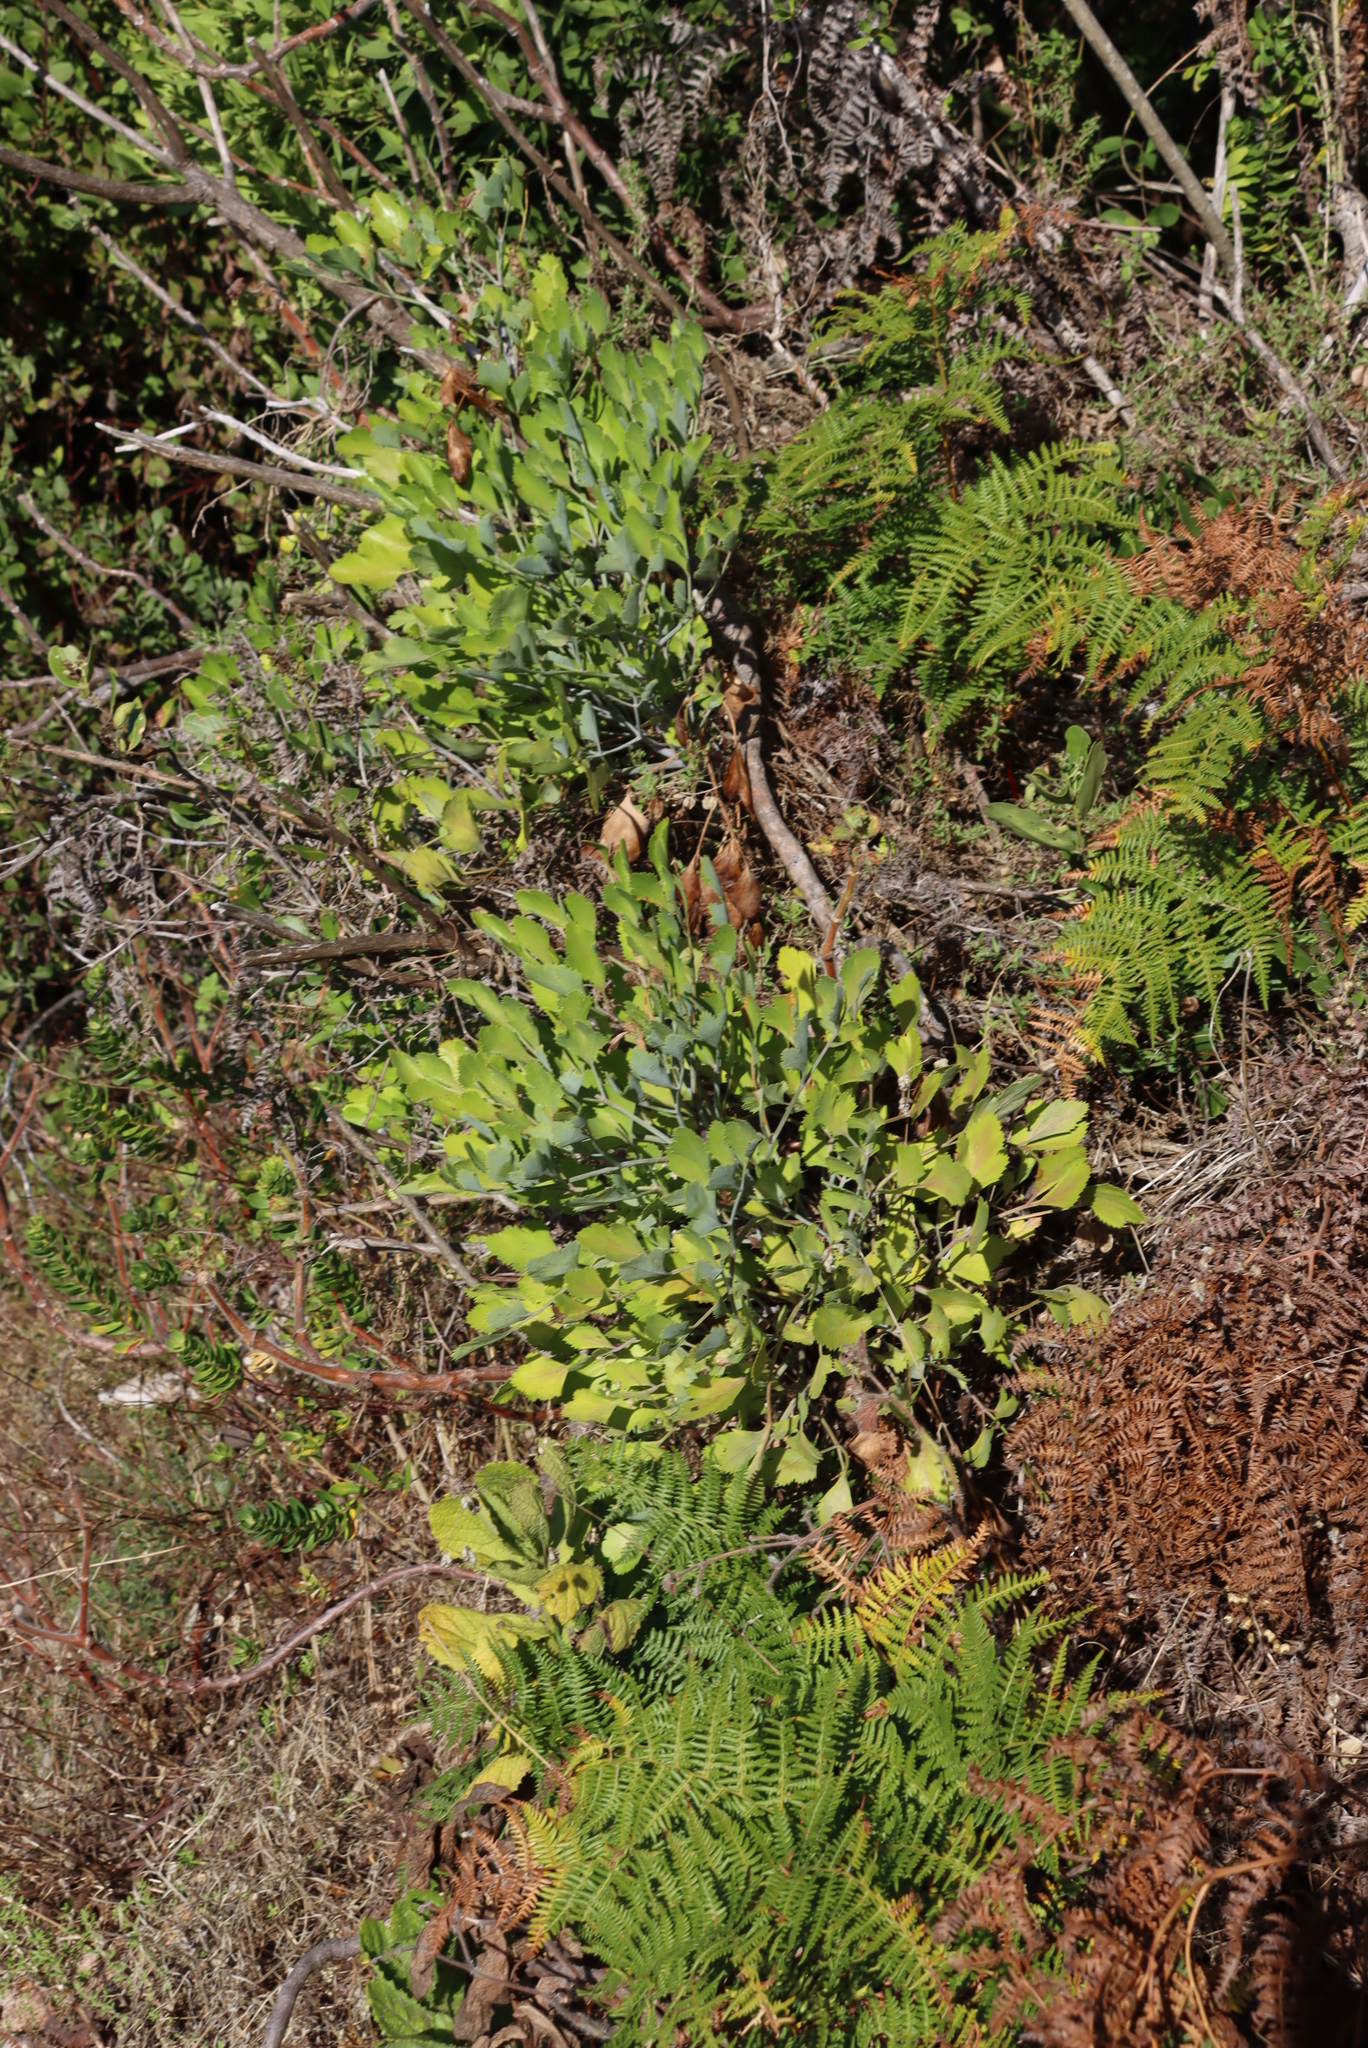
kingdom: Plantae
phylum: Tracheophyta
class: Magnoliopsida
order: Apiales
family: Apiaceae
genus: Notobubon
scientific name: Notobubon galbanum
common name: Blisterbush
